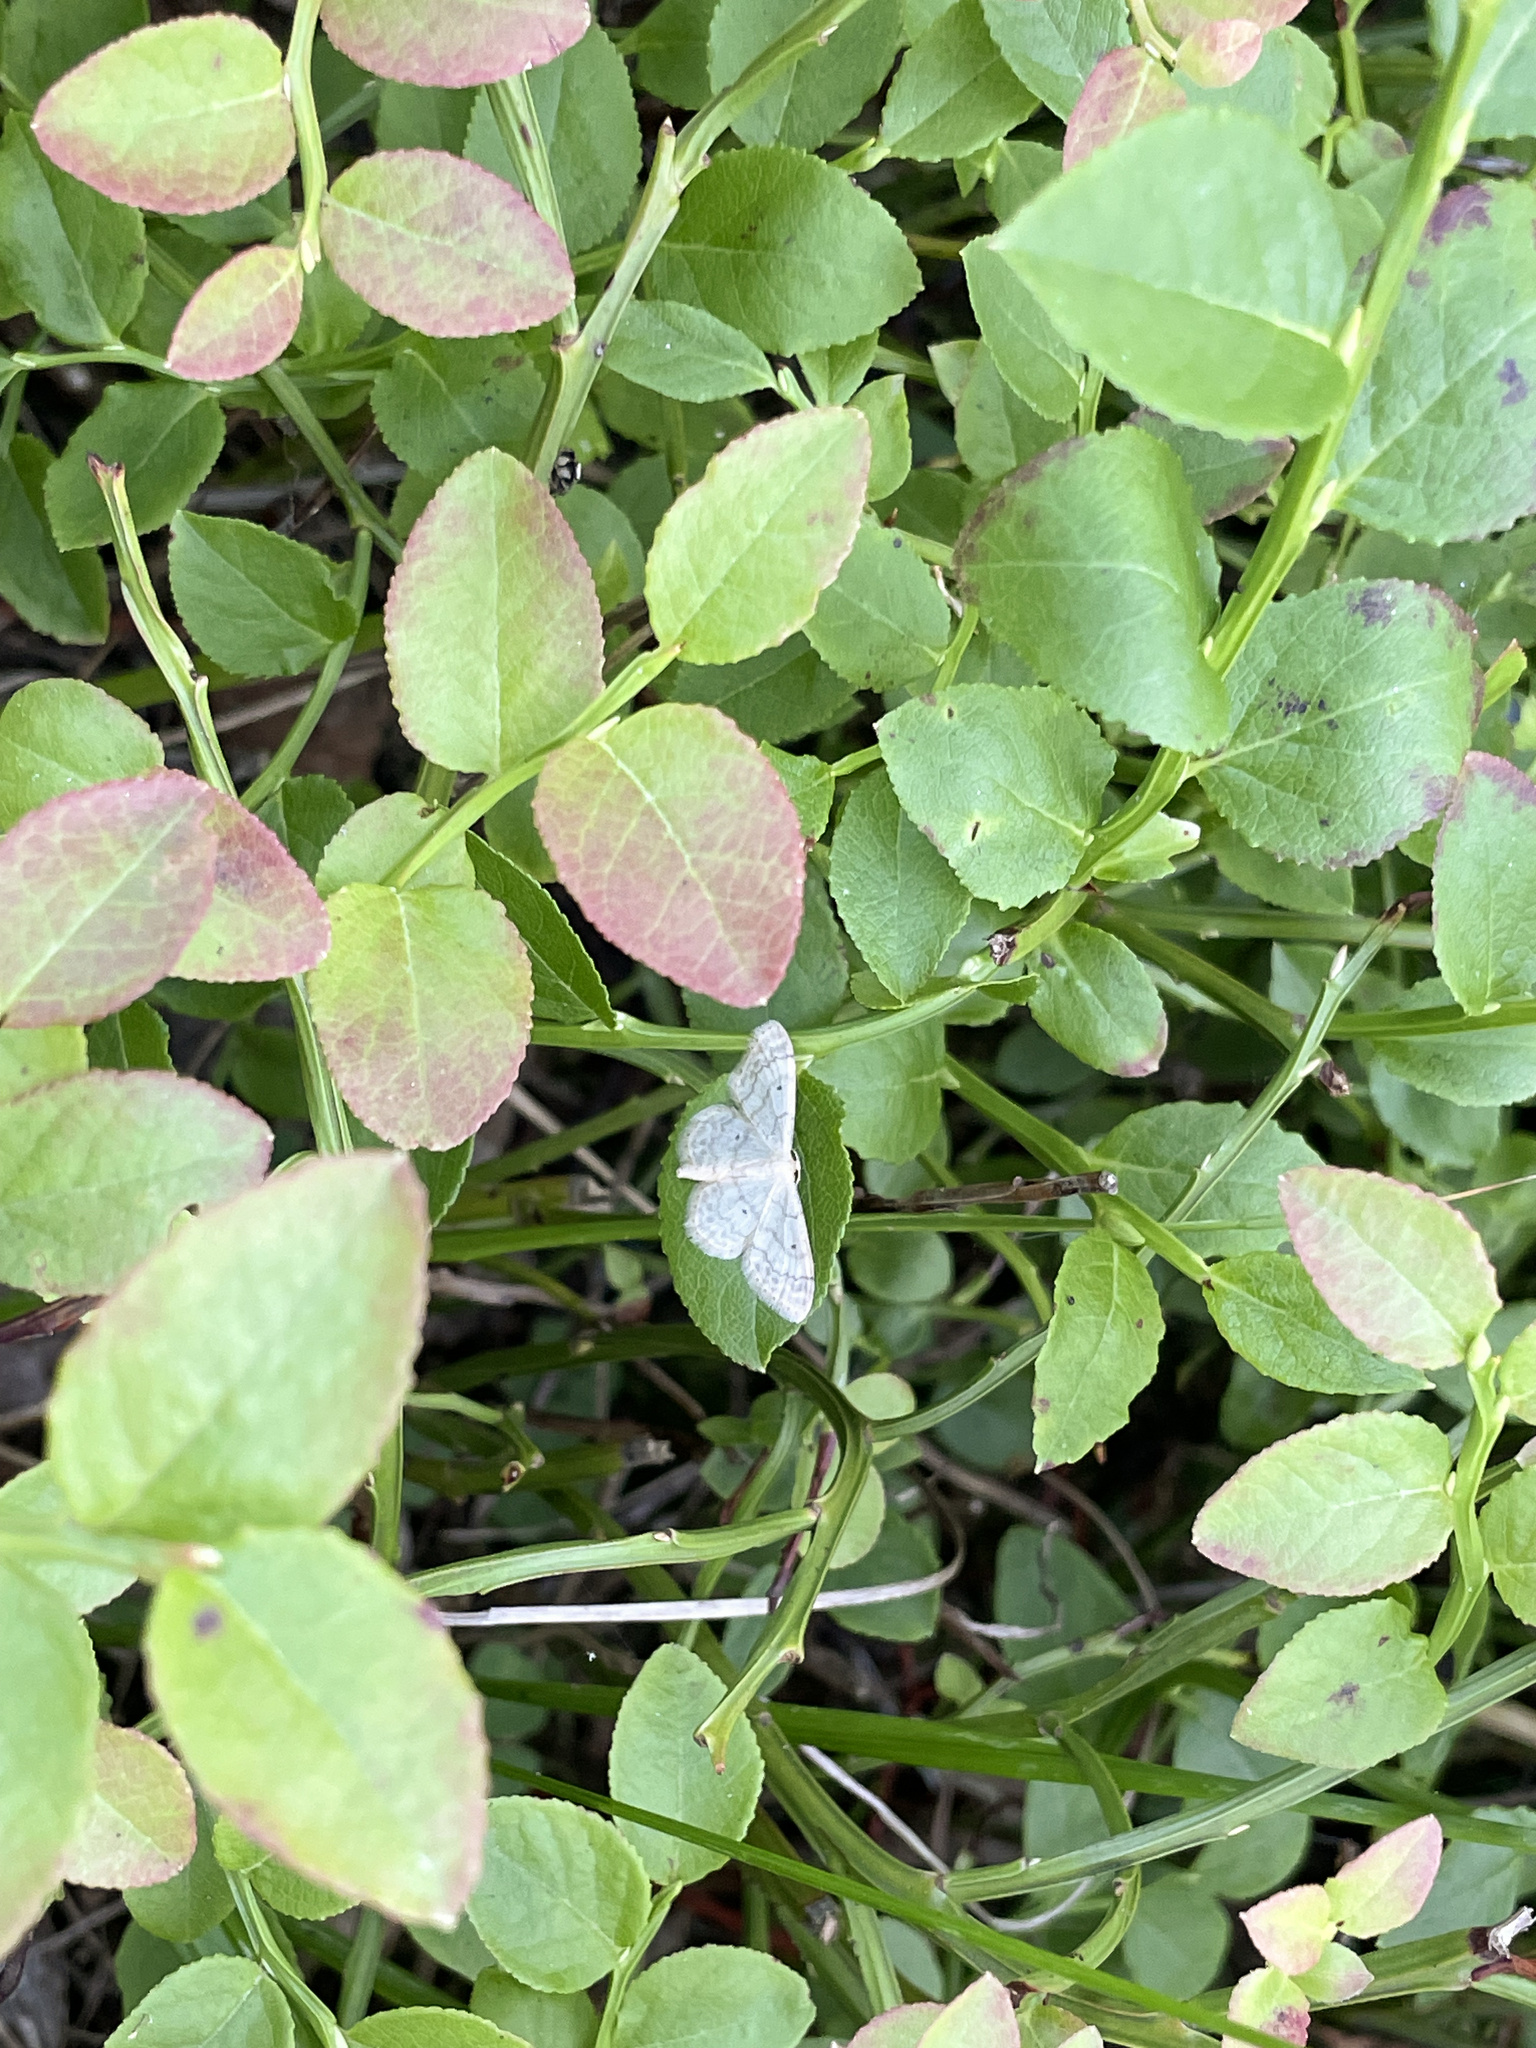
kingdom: Animalia
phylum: Arthropoda
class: Insecta
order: Lepidoptera
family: Geometridae
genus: Idaea
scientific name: Idaea biselata
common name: Small fan-footed wave
